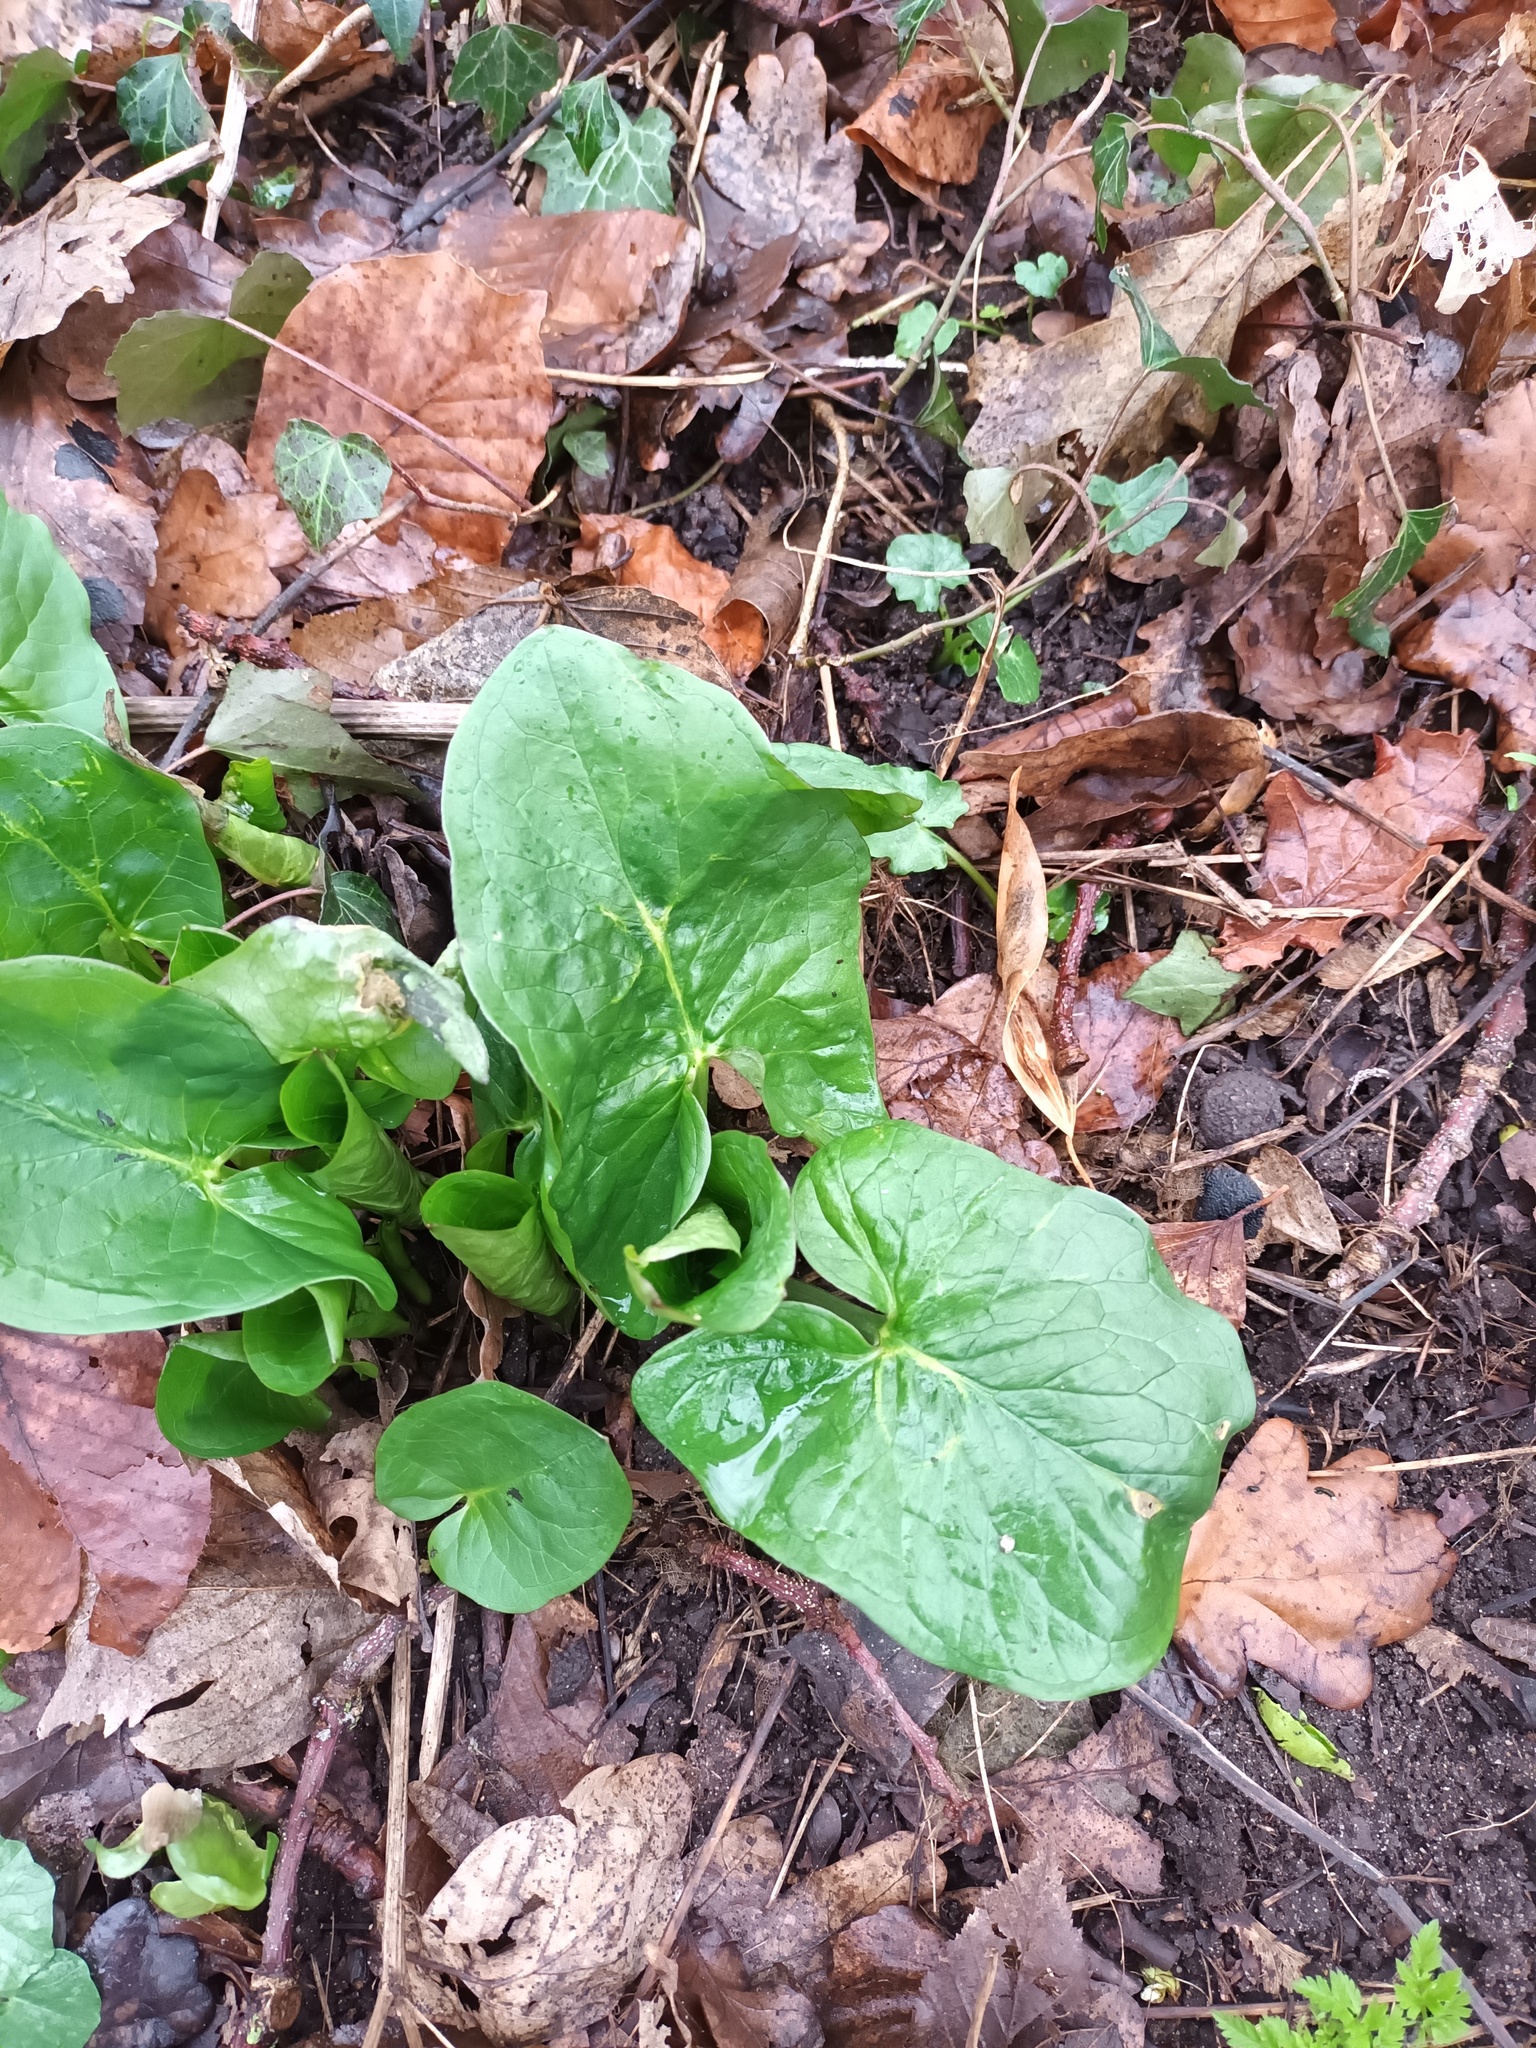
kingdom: Plantae
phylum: Tracheophyta
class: Liliopsida
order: Alismatales
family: Araceae
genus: Arum
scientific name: Arum maculatum
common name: Lords-and-ladies
